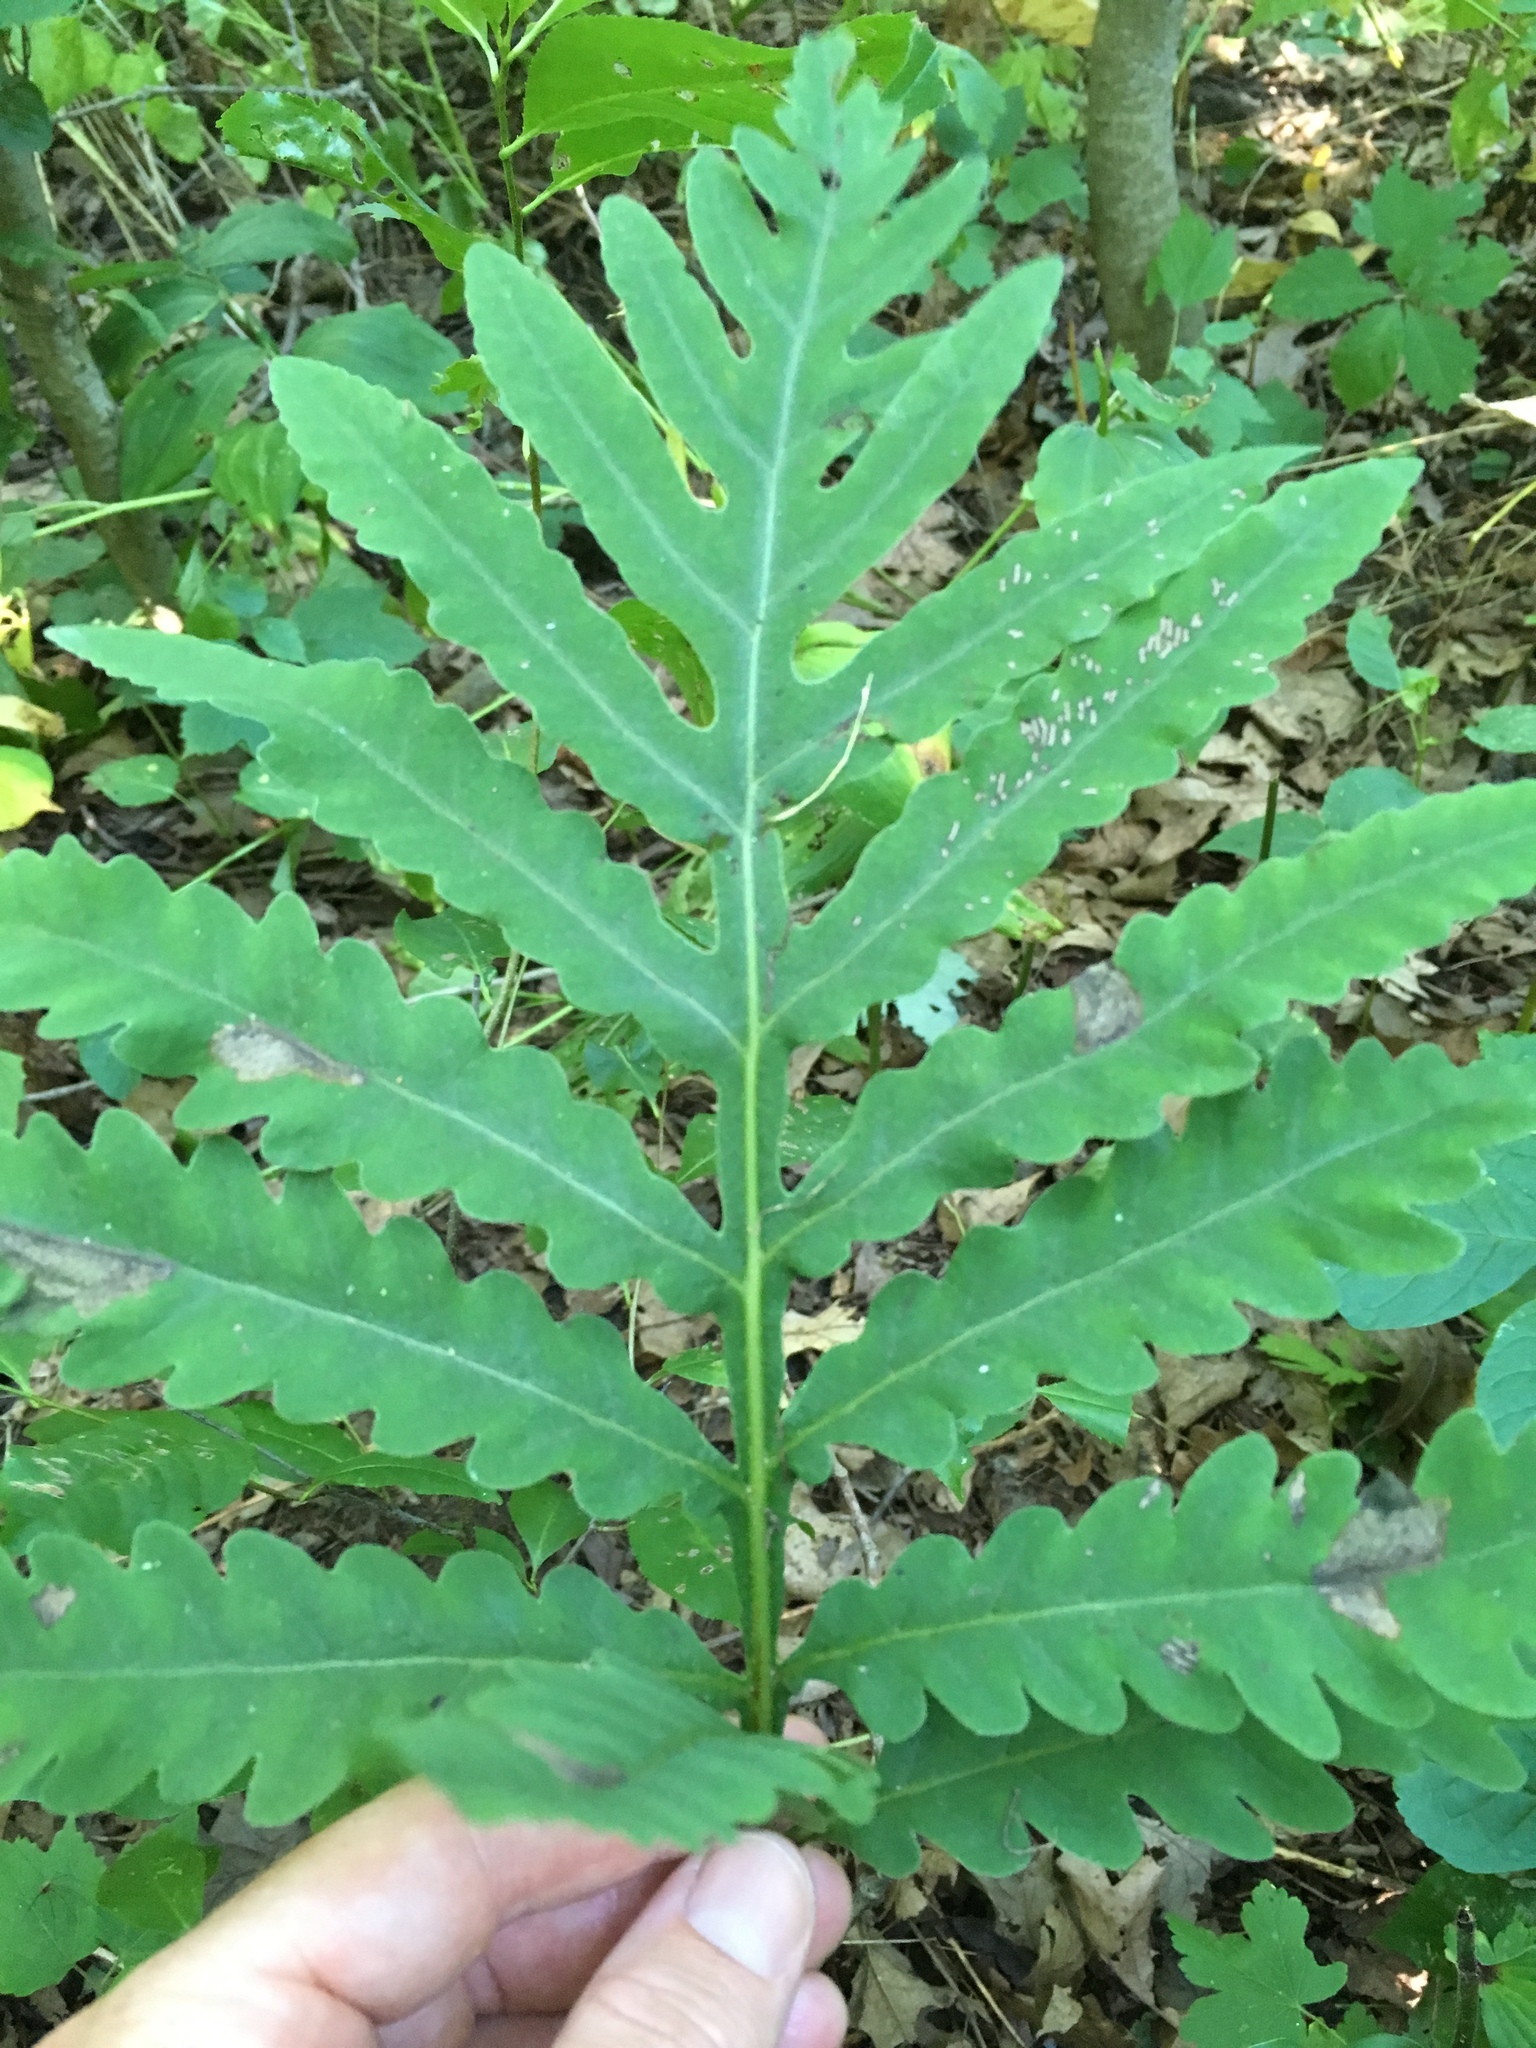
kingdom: Plantae
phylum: Tracheophyta
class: Polypodiopsida
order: Polypodiales
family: Onocleaceae
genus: Onoclea
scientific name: Onoclea sensibilis
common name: Sensitive fern
